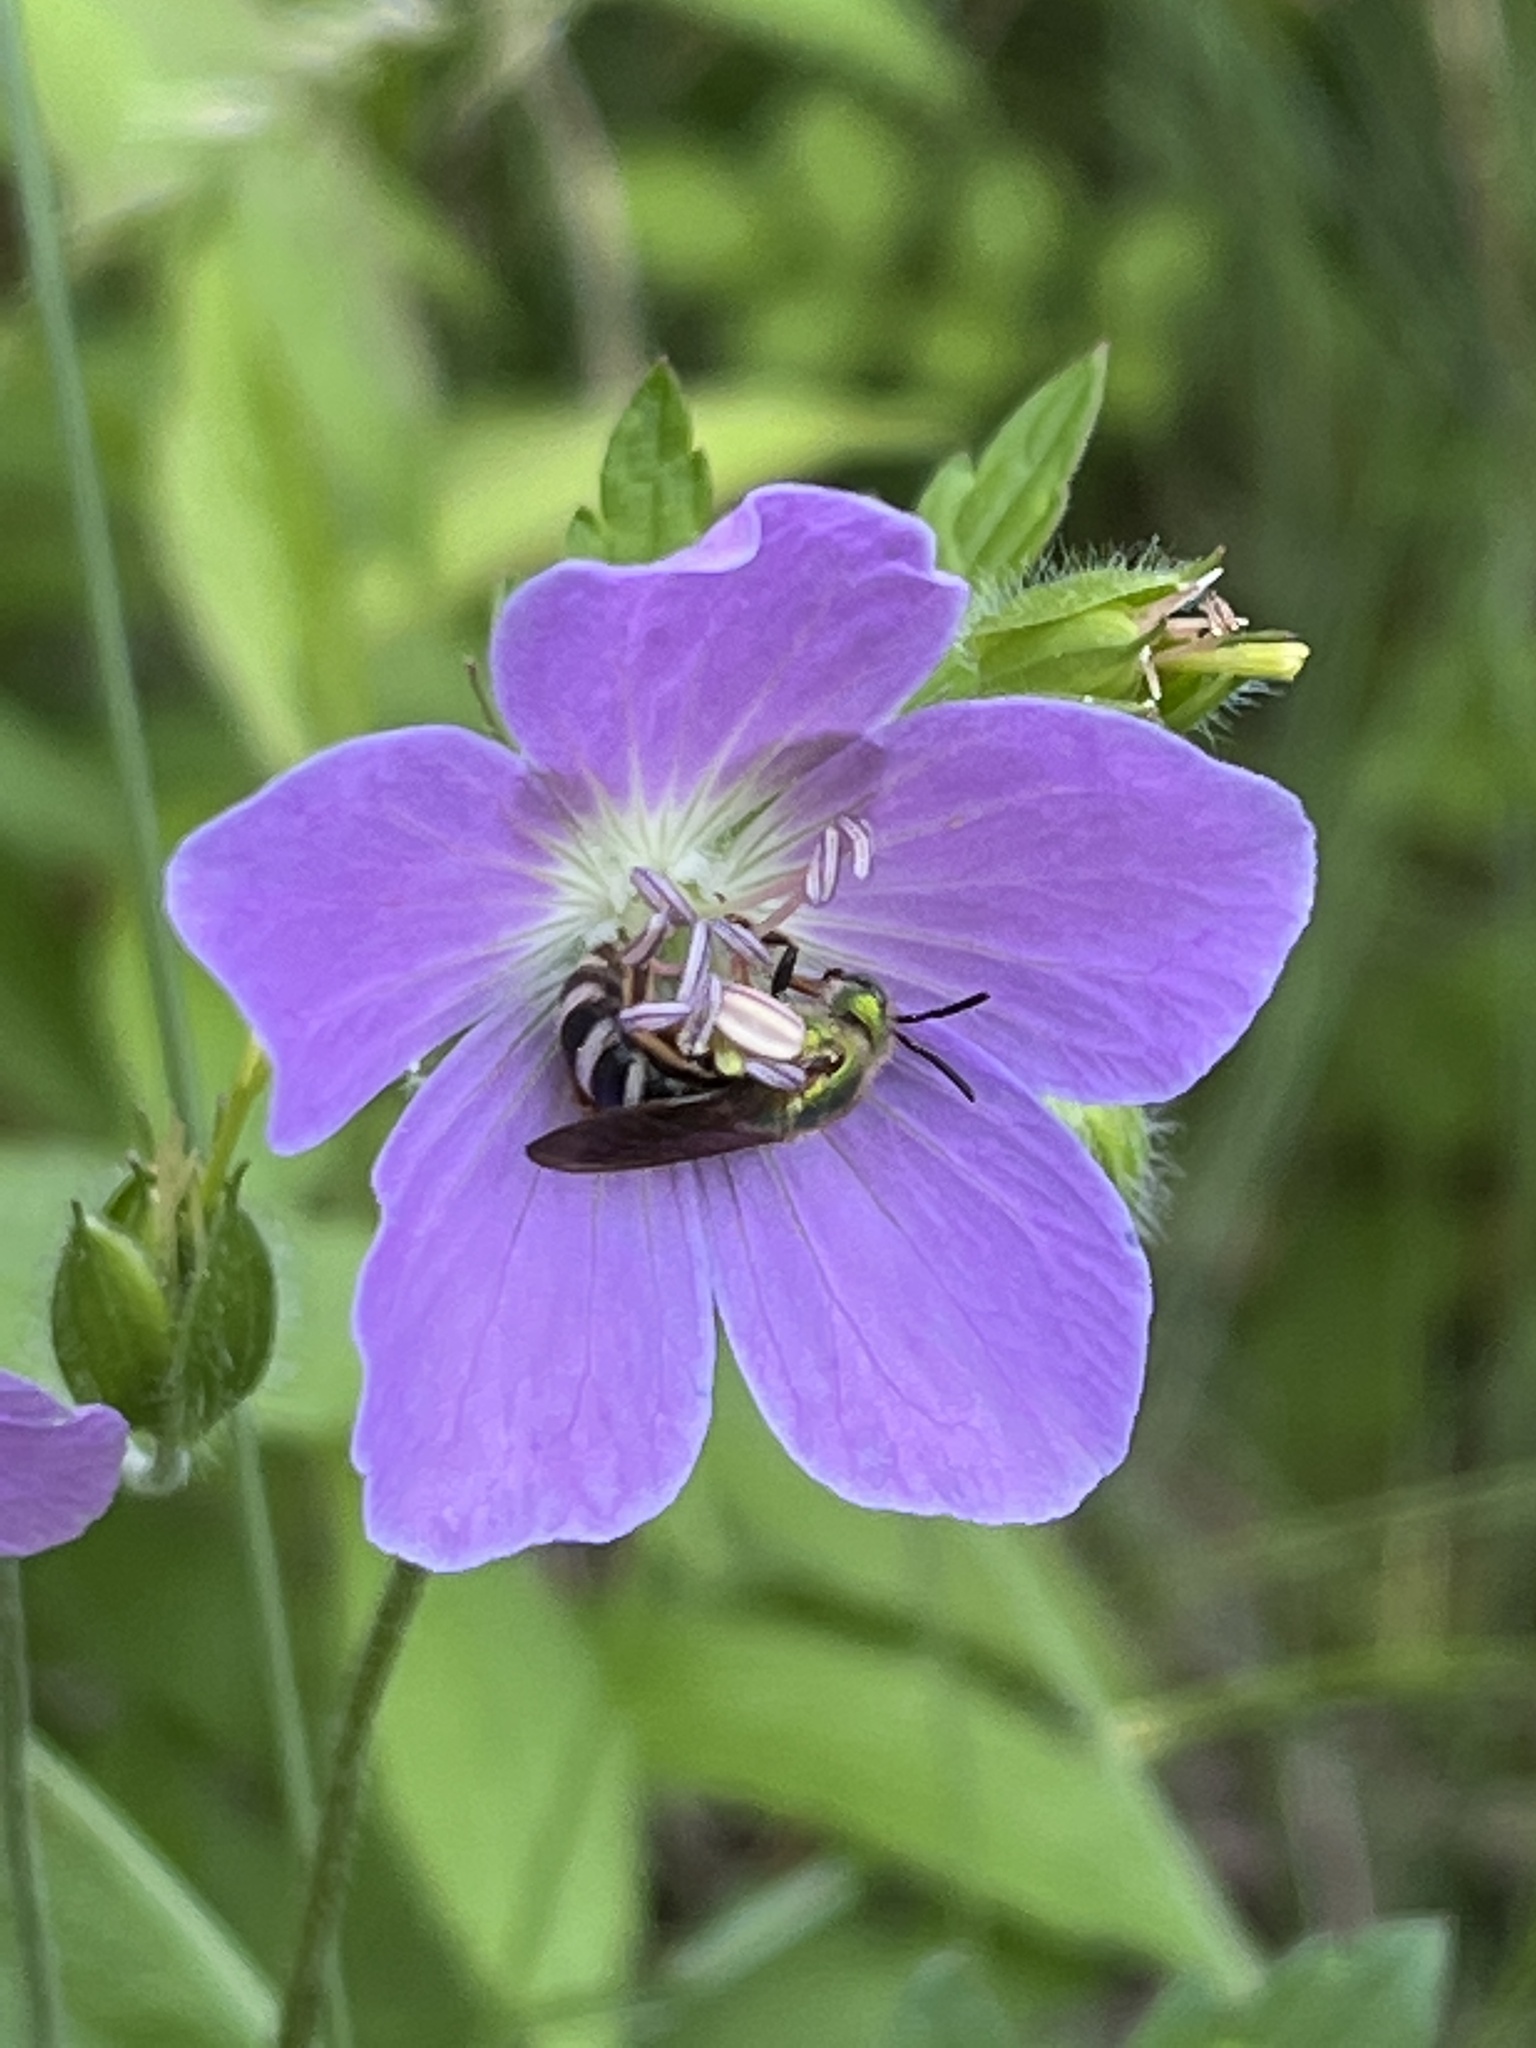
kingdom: Animalia
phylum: Arthropoda
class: Insecta
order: Hymenoptera
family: Halictidae
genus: Agapostemon
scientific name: Agapostemon virescens
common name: Bicolored striped sweat bee
